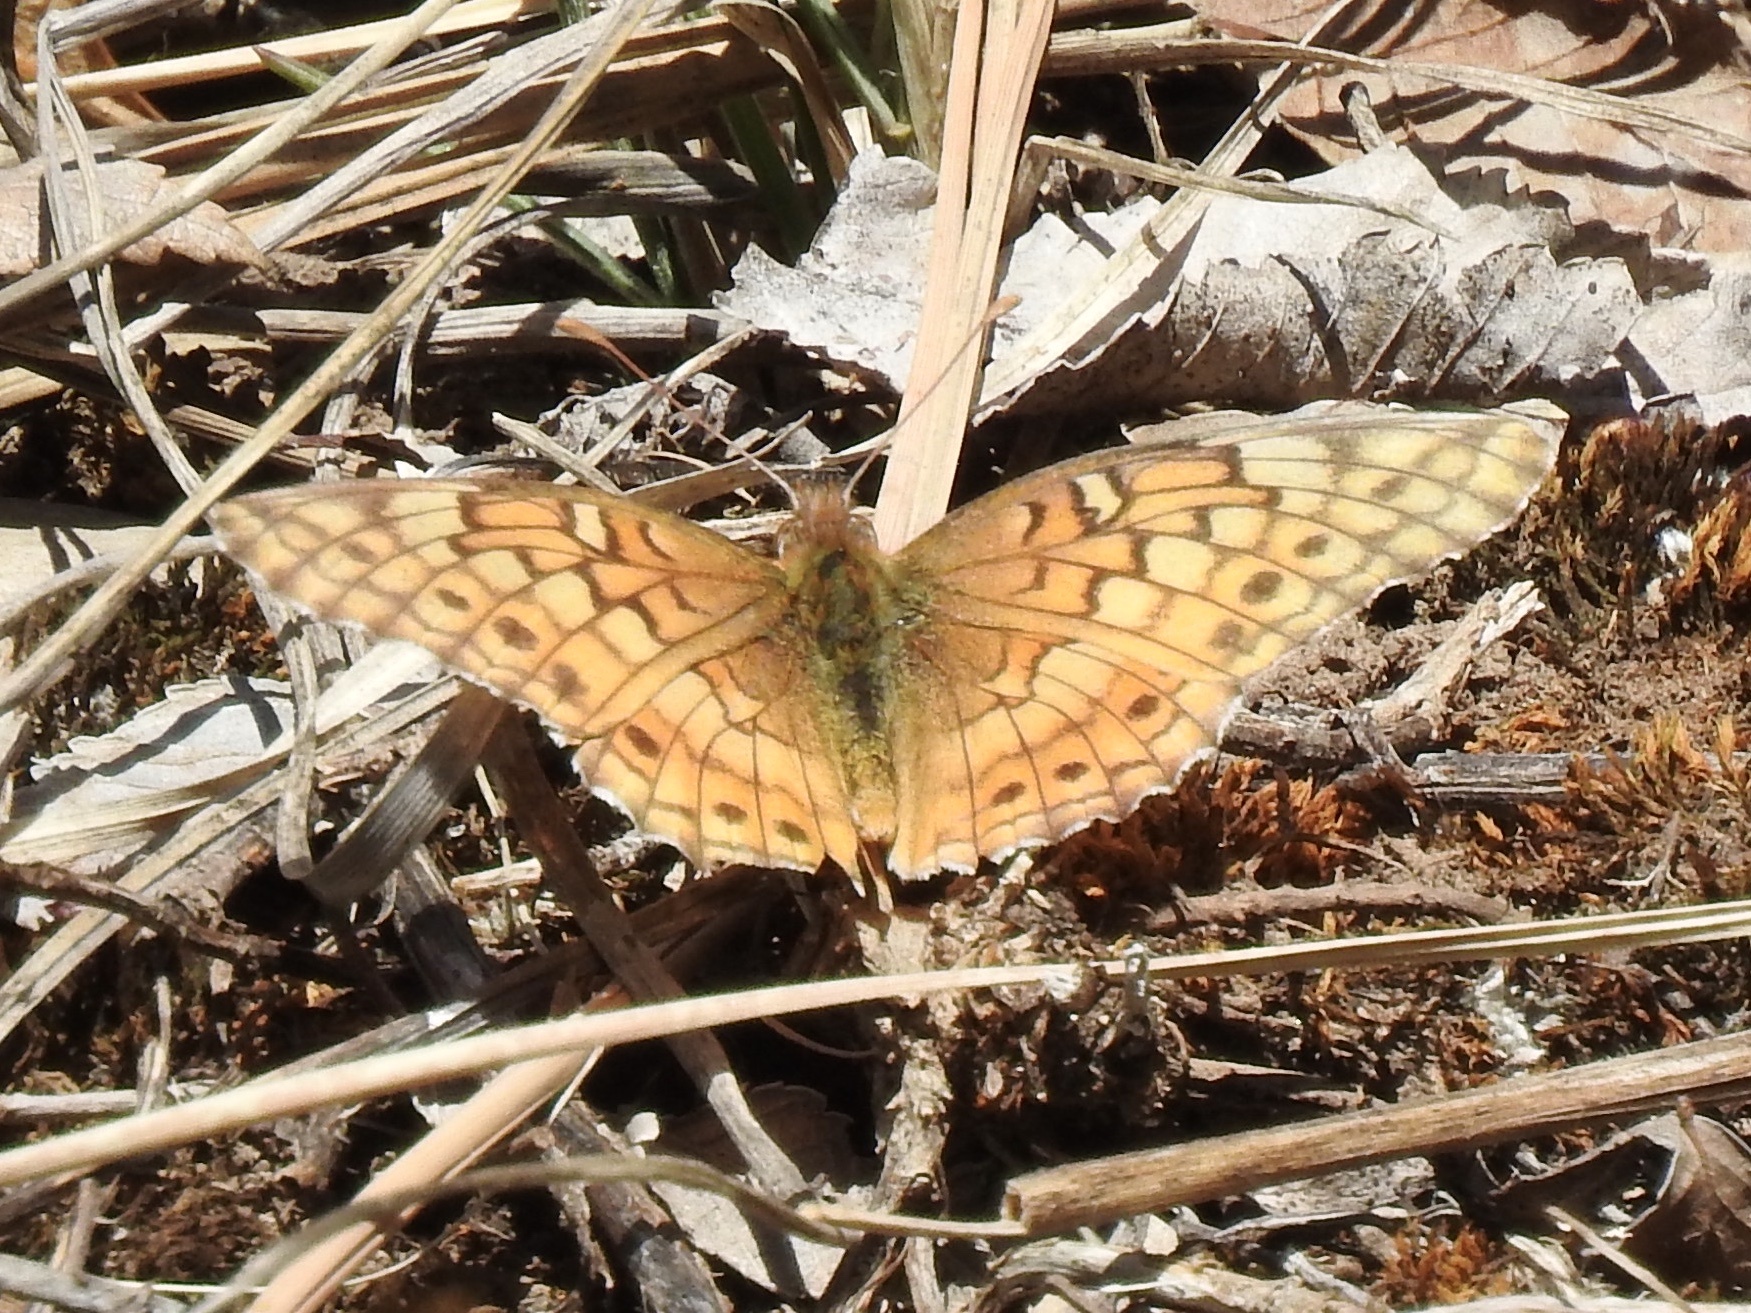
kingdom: Animalia
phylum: Arthropoda
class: Insecta
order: Lepidoptera
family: Nymphalidae
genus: Euptoieta
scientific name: Euptoieta claudia
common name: Variegated fritillary
